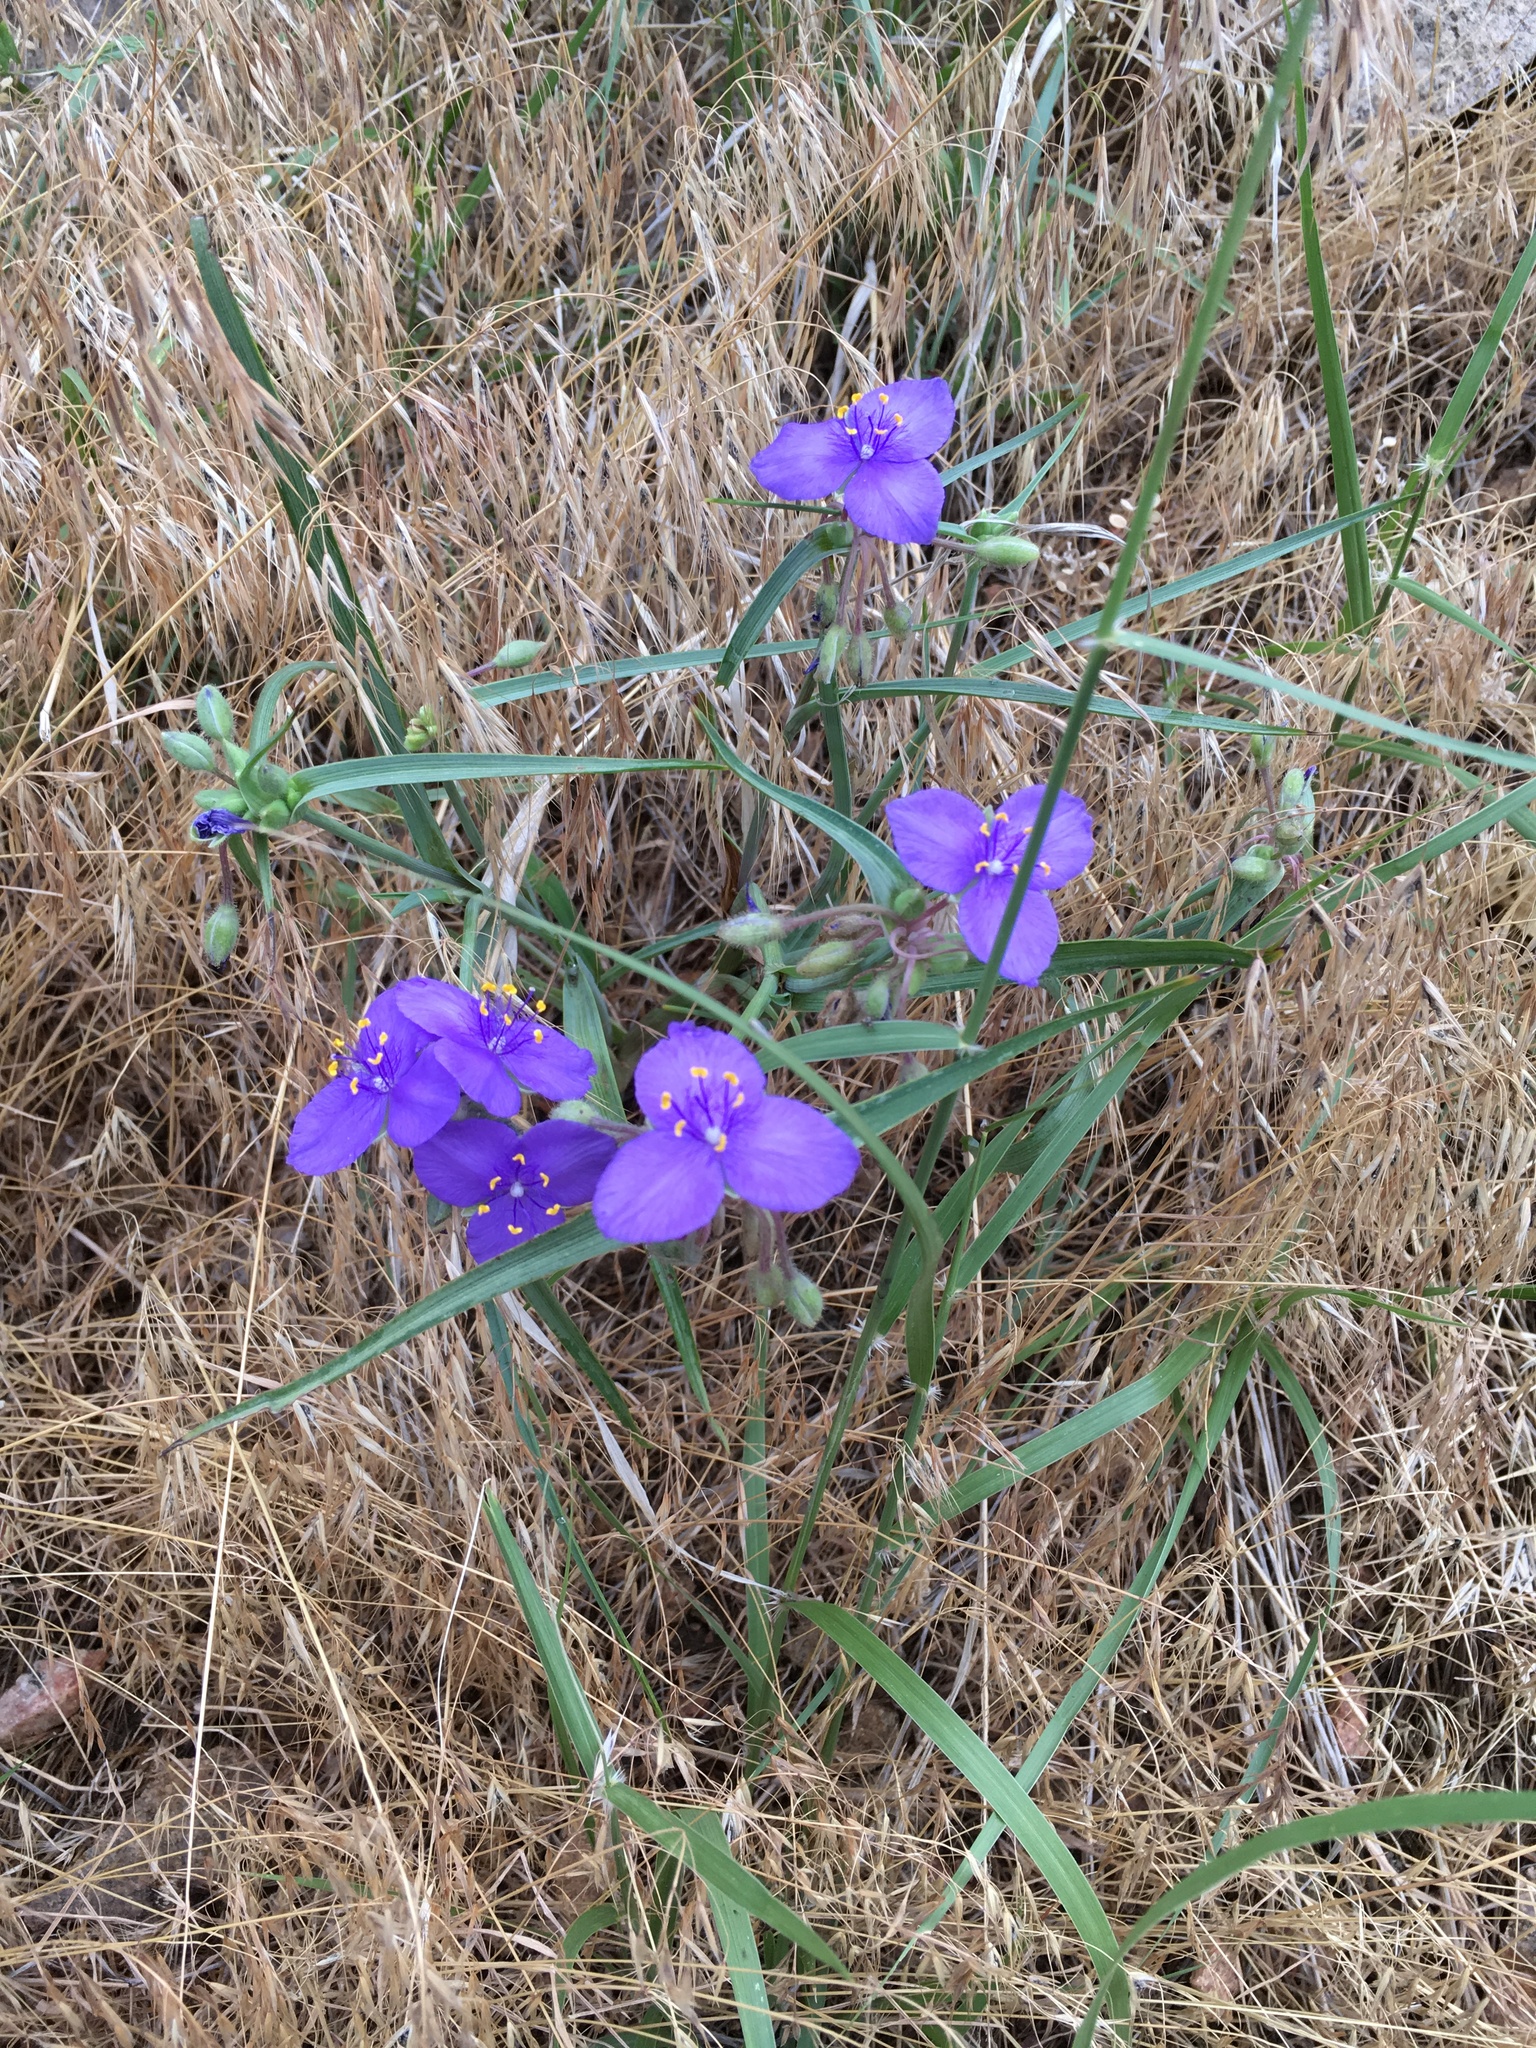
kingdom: Plantae
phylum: Tracheophyta
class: Liliopsida
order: Commelinales
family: Commelinaceae
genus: Tradescantia
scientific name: Tradescantia occidentalis
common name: Prairie spiderwort
